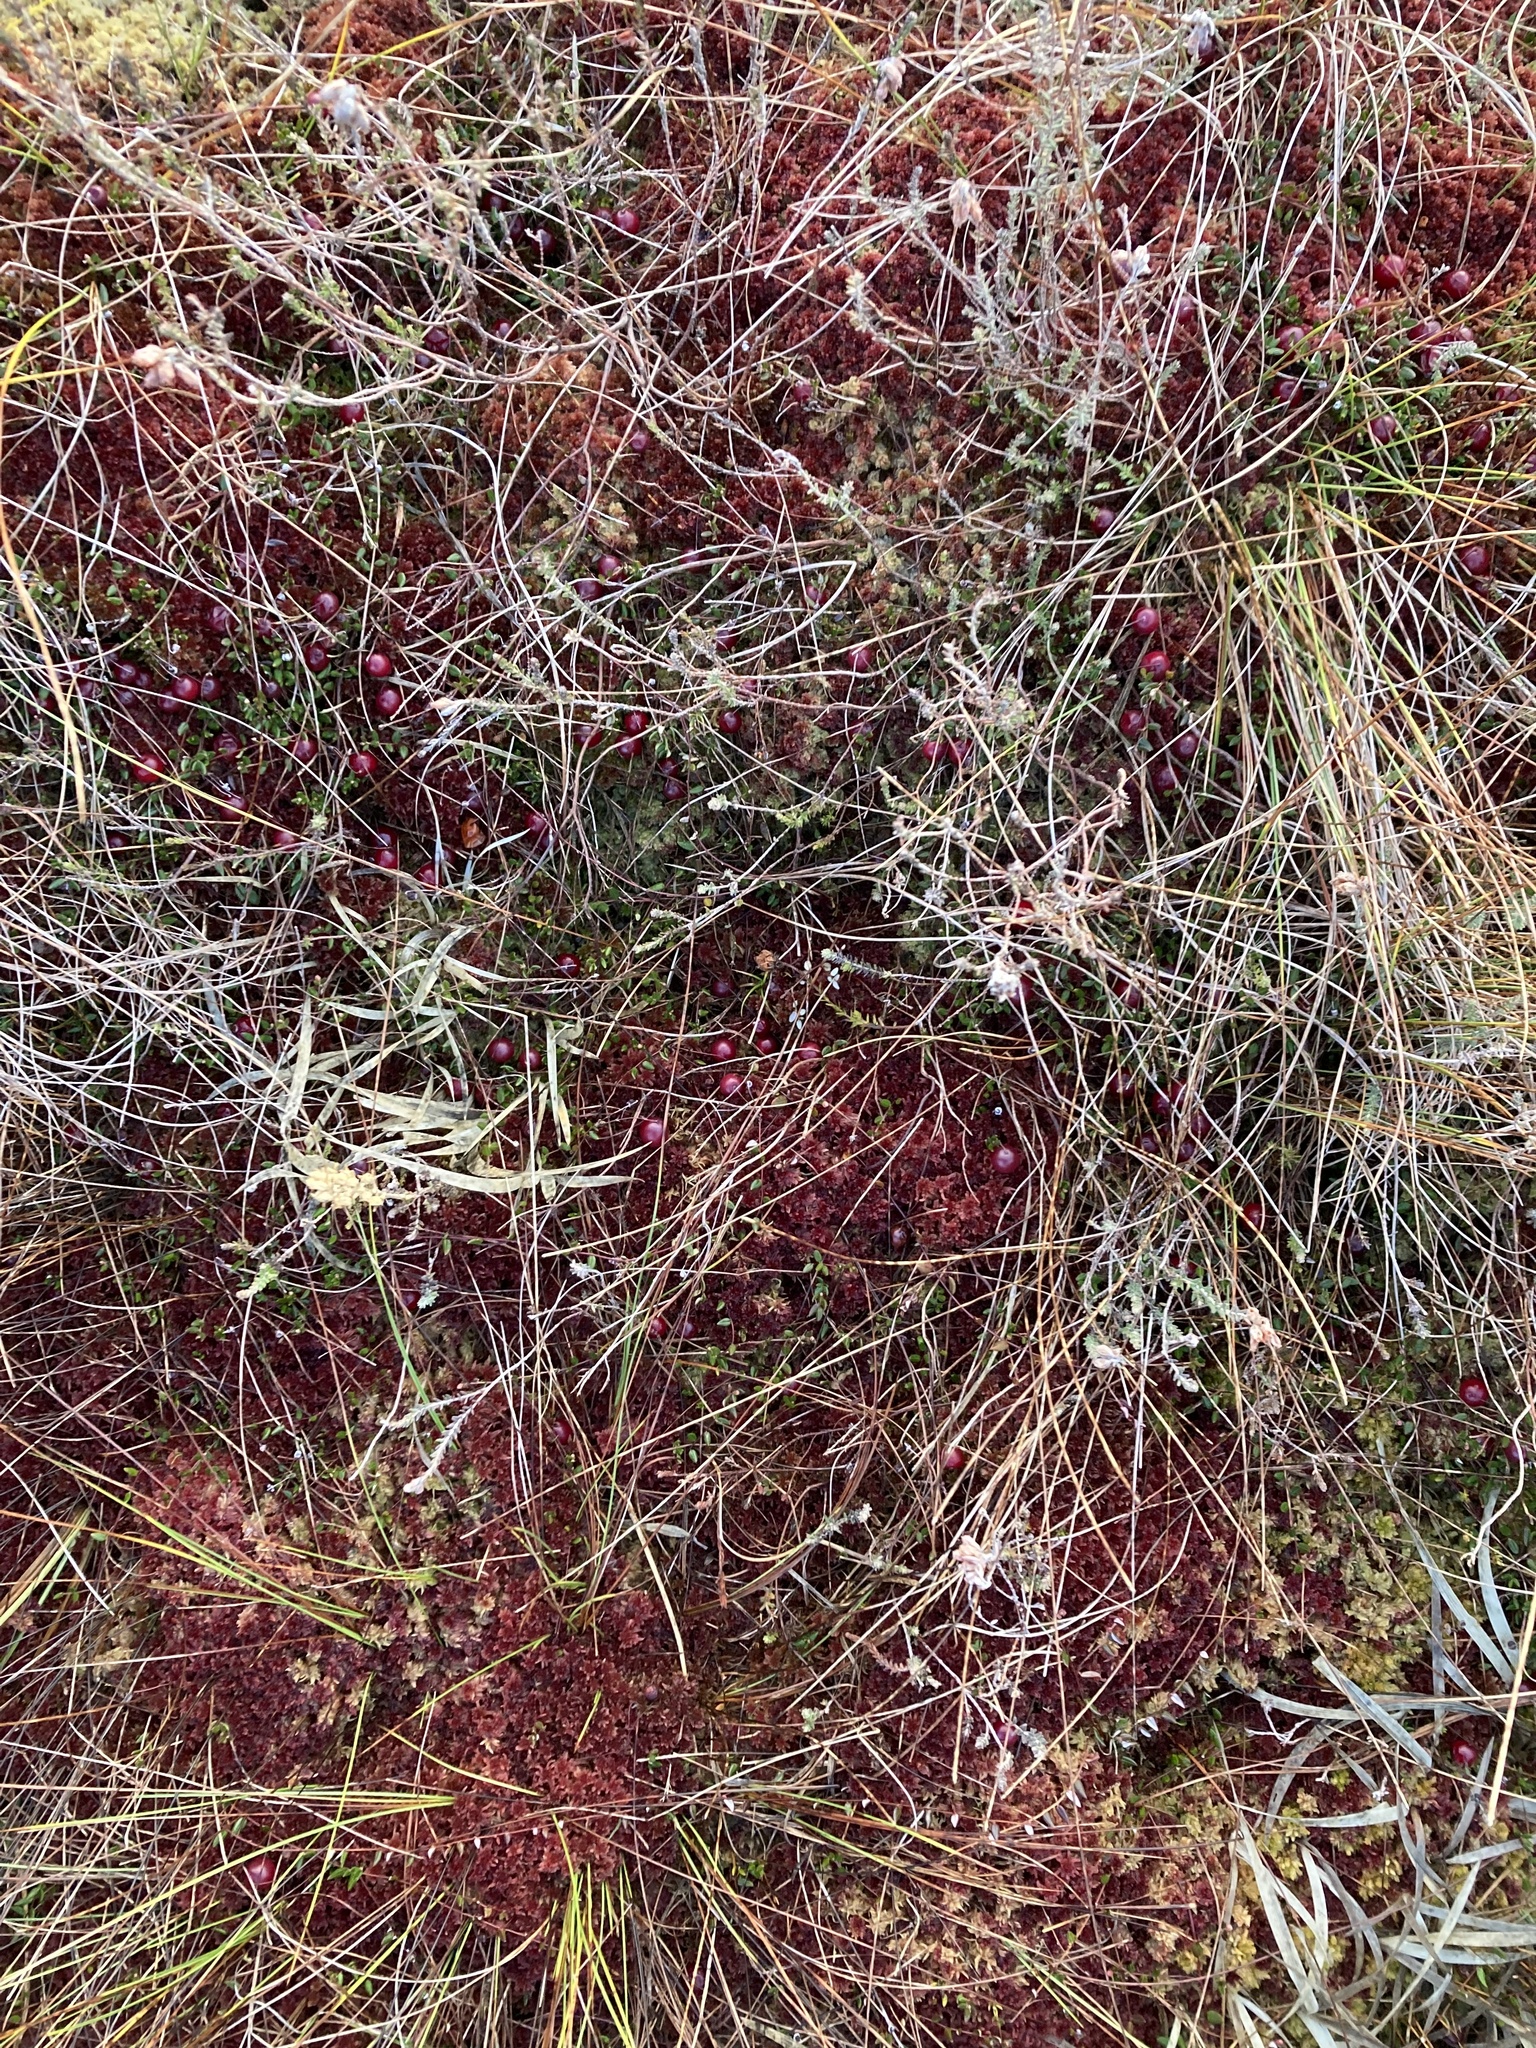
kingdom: Plantae
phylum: Tracheophyta
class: Magnoliopsida
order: Ericales
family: Ericaceae
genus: Vaccinium
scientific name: Vaccinium oxycoccos
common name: Cranberry
